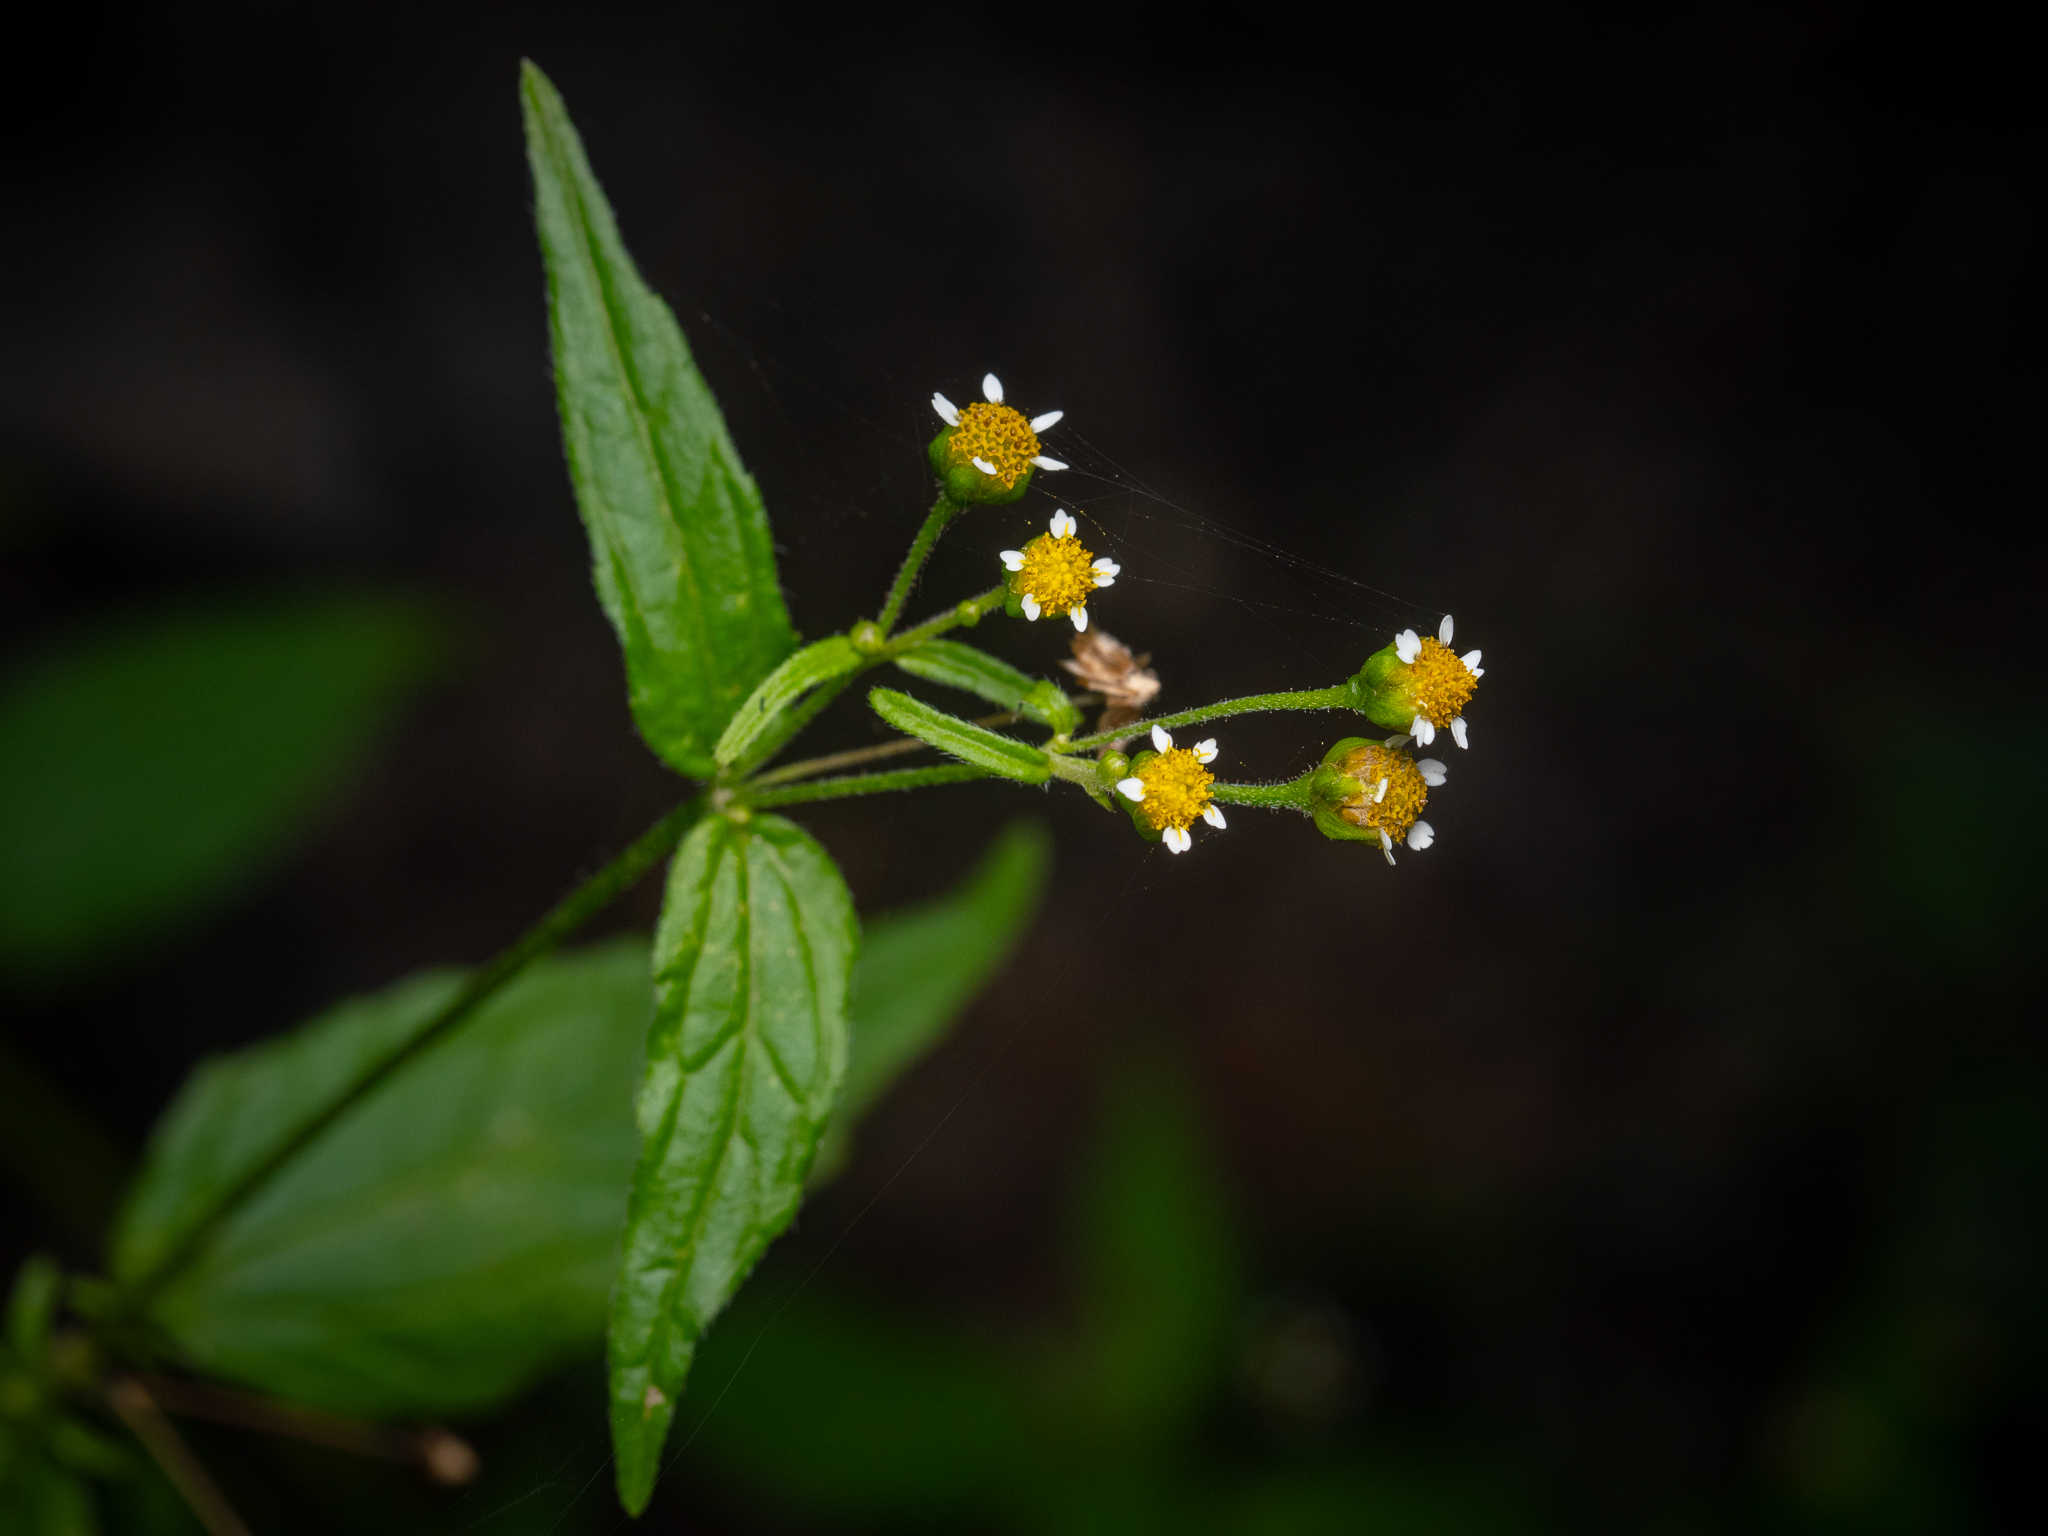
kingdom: Plantae
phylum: Tracheophyta
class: Magnoliopsida
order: Asterales
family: Asteraceae
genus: Galinsoga
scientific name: Galinsoga parviflora
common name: Gallant soldier
